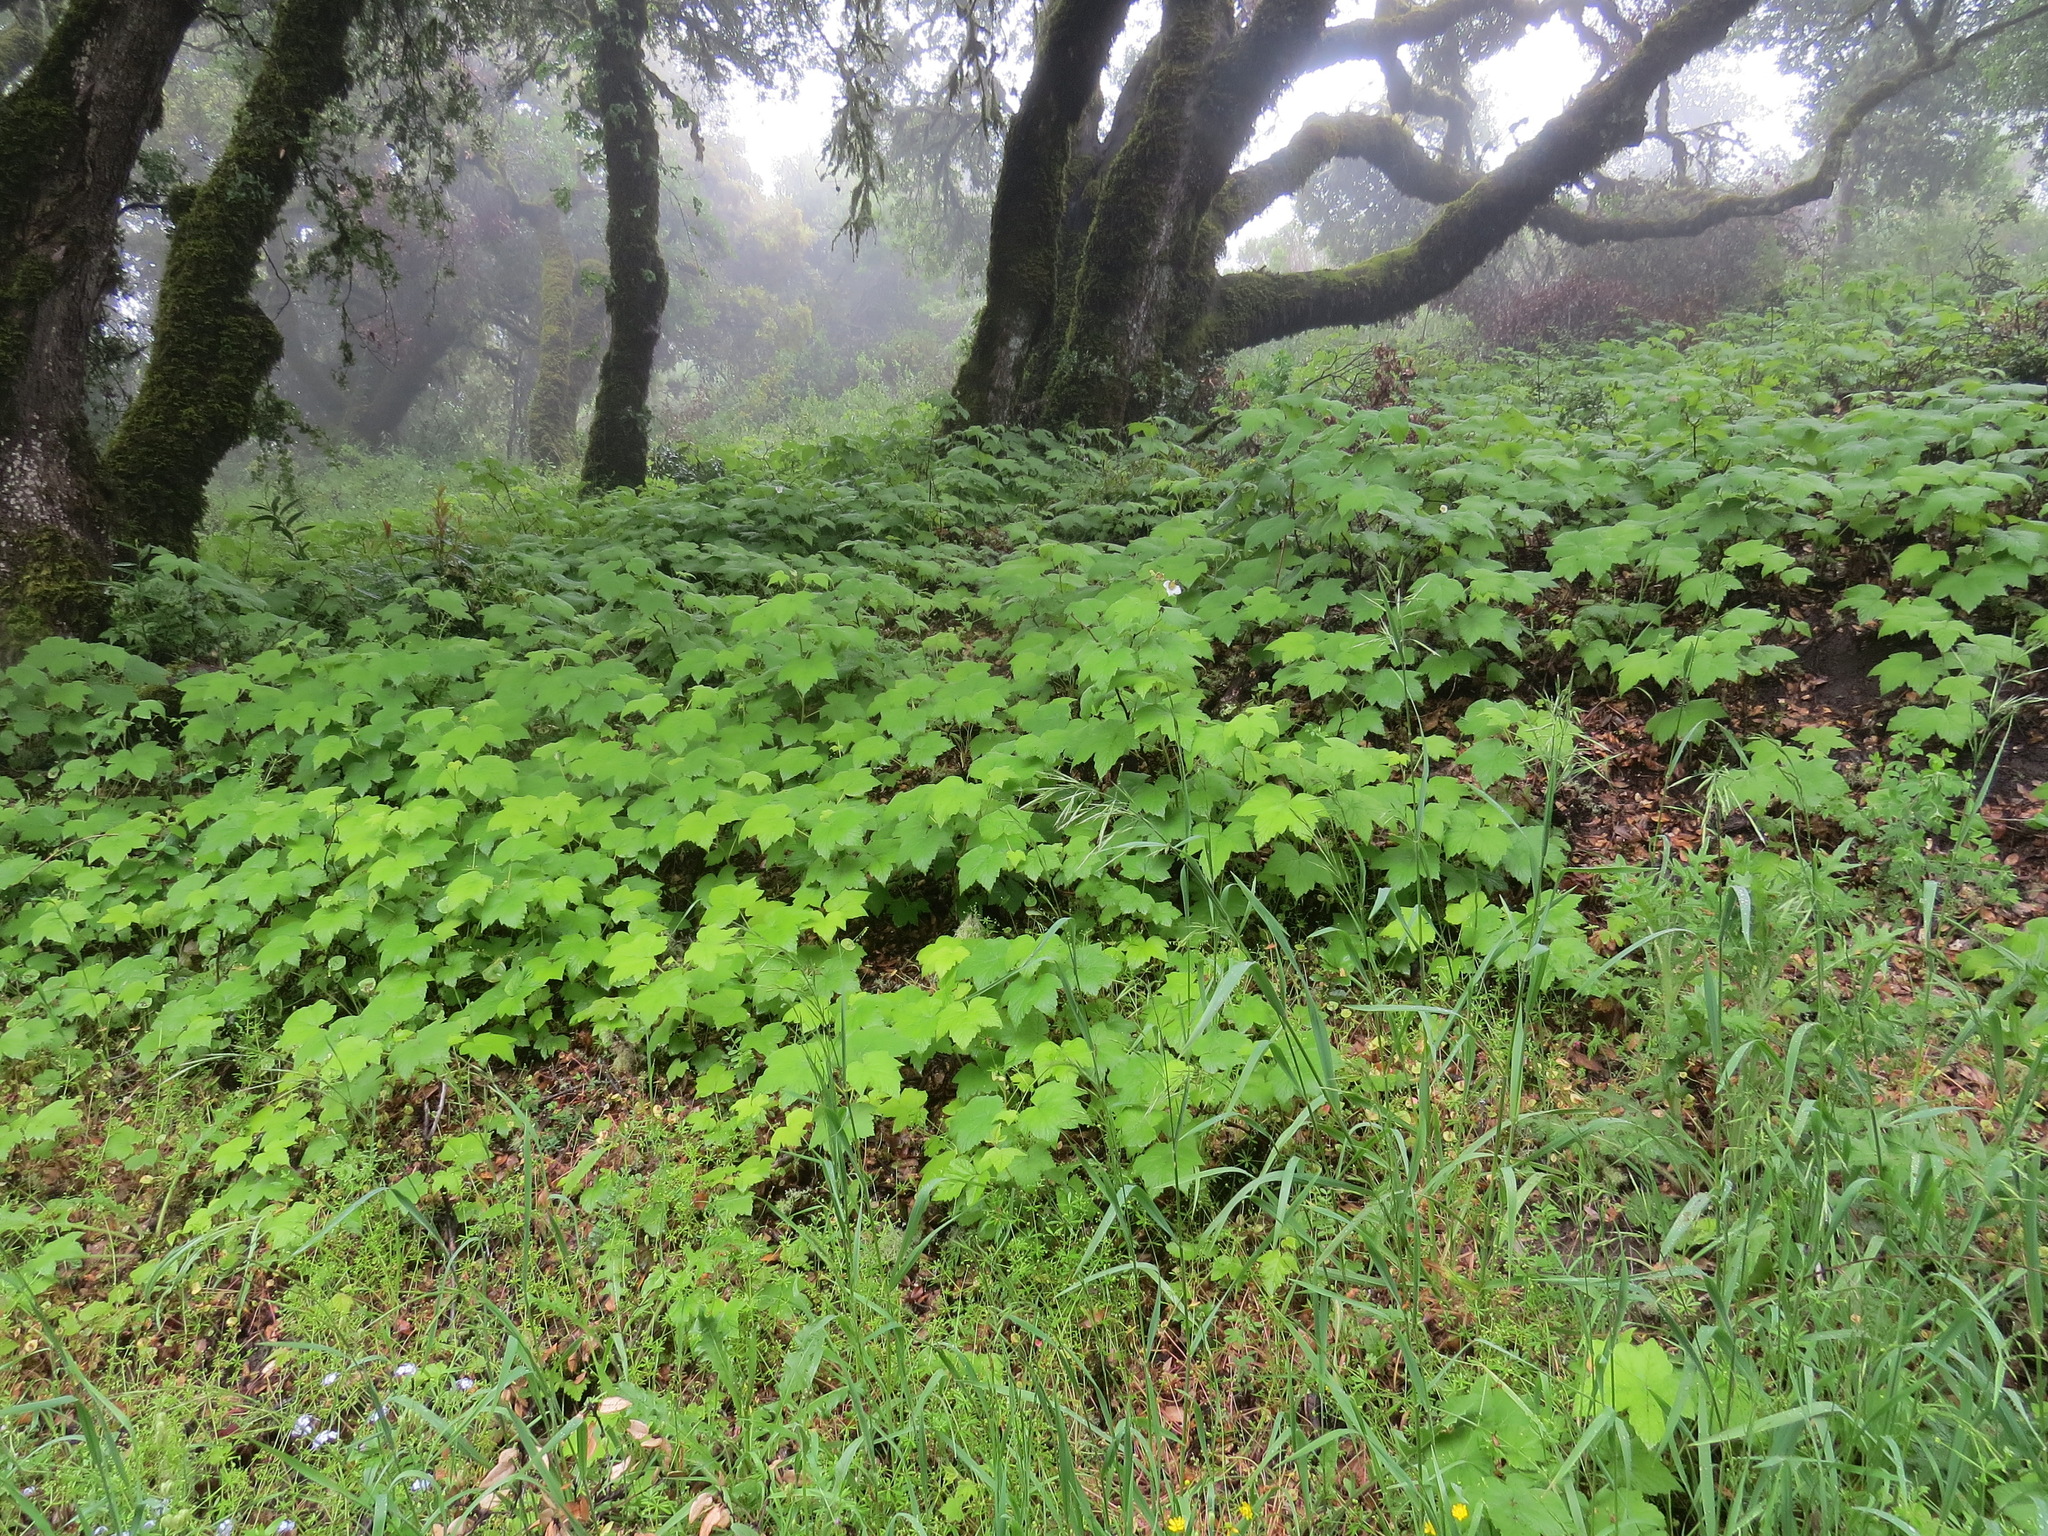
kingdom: Plantae
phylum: Tracheophyta
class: Magnoliopsida
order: Rosales
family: Rosaceae
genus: Rubus
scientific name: Rubus parviflorus
